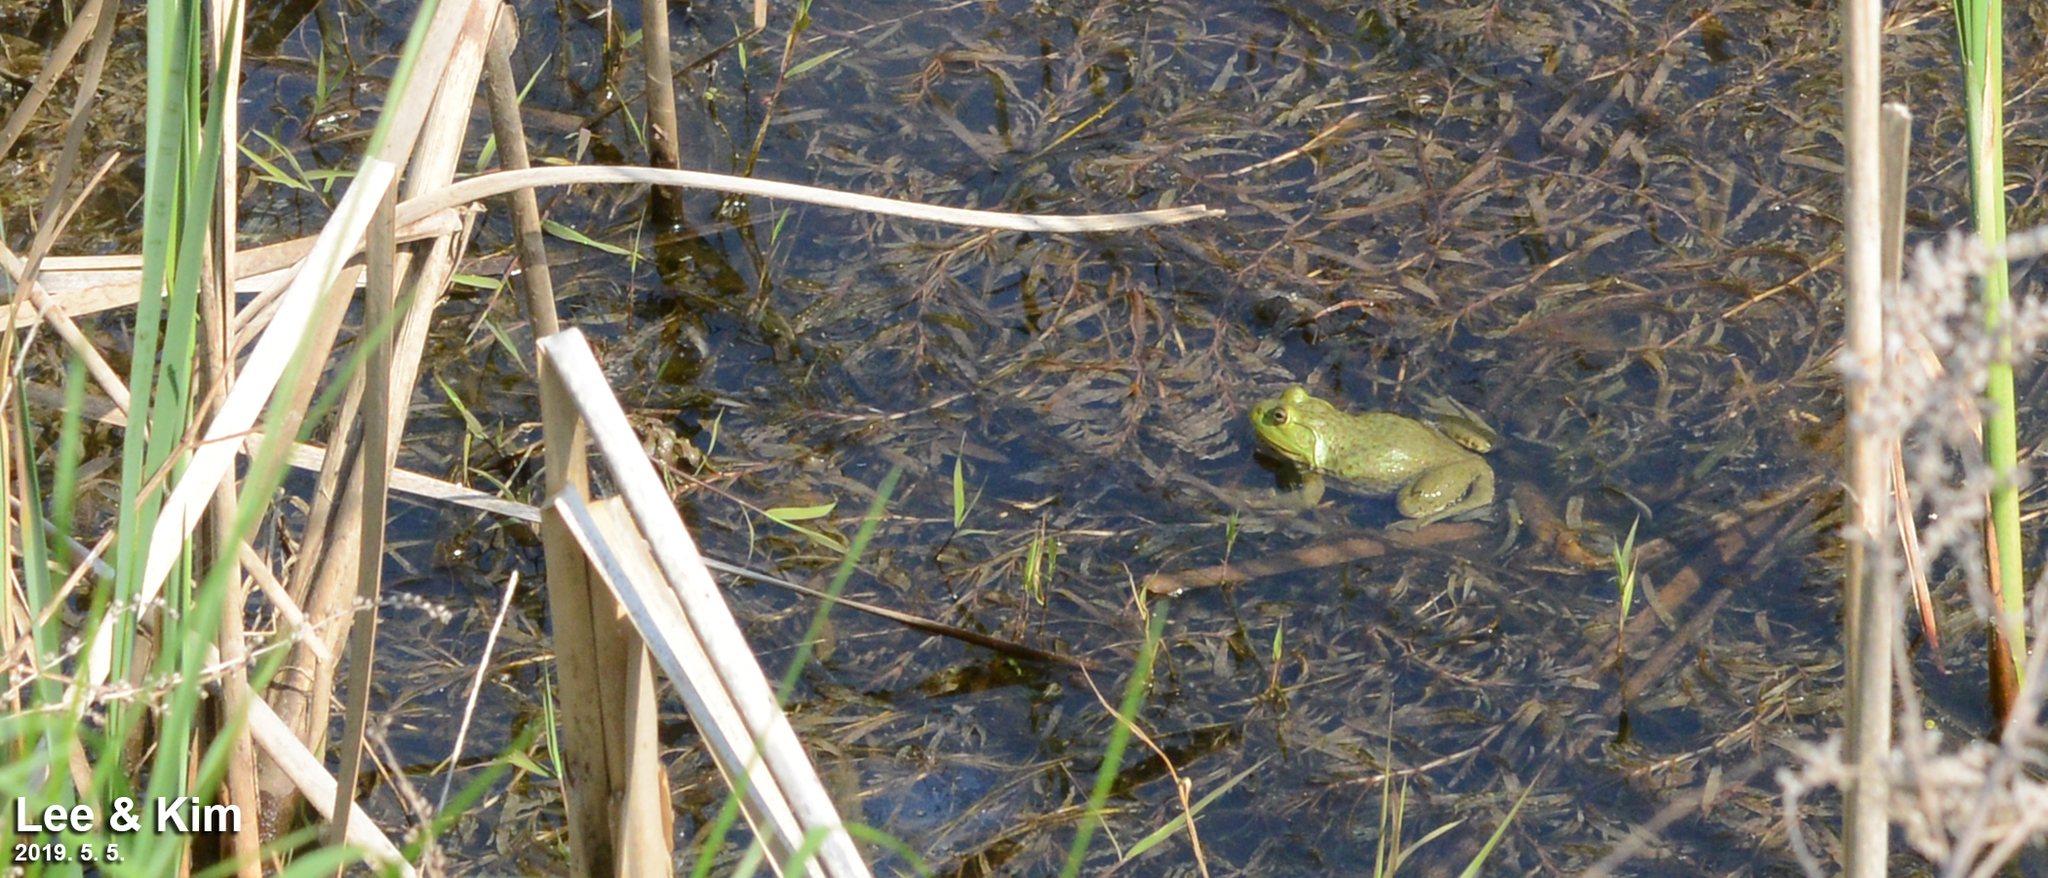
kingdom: Animalia
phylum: Chordata
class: Amphibia
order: Anura
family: Ranidae
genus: Lithobates
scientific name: Lithobates catesbeianus
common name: American bullfrog
